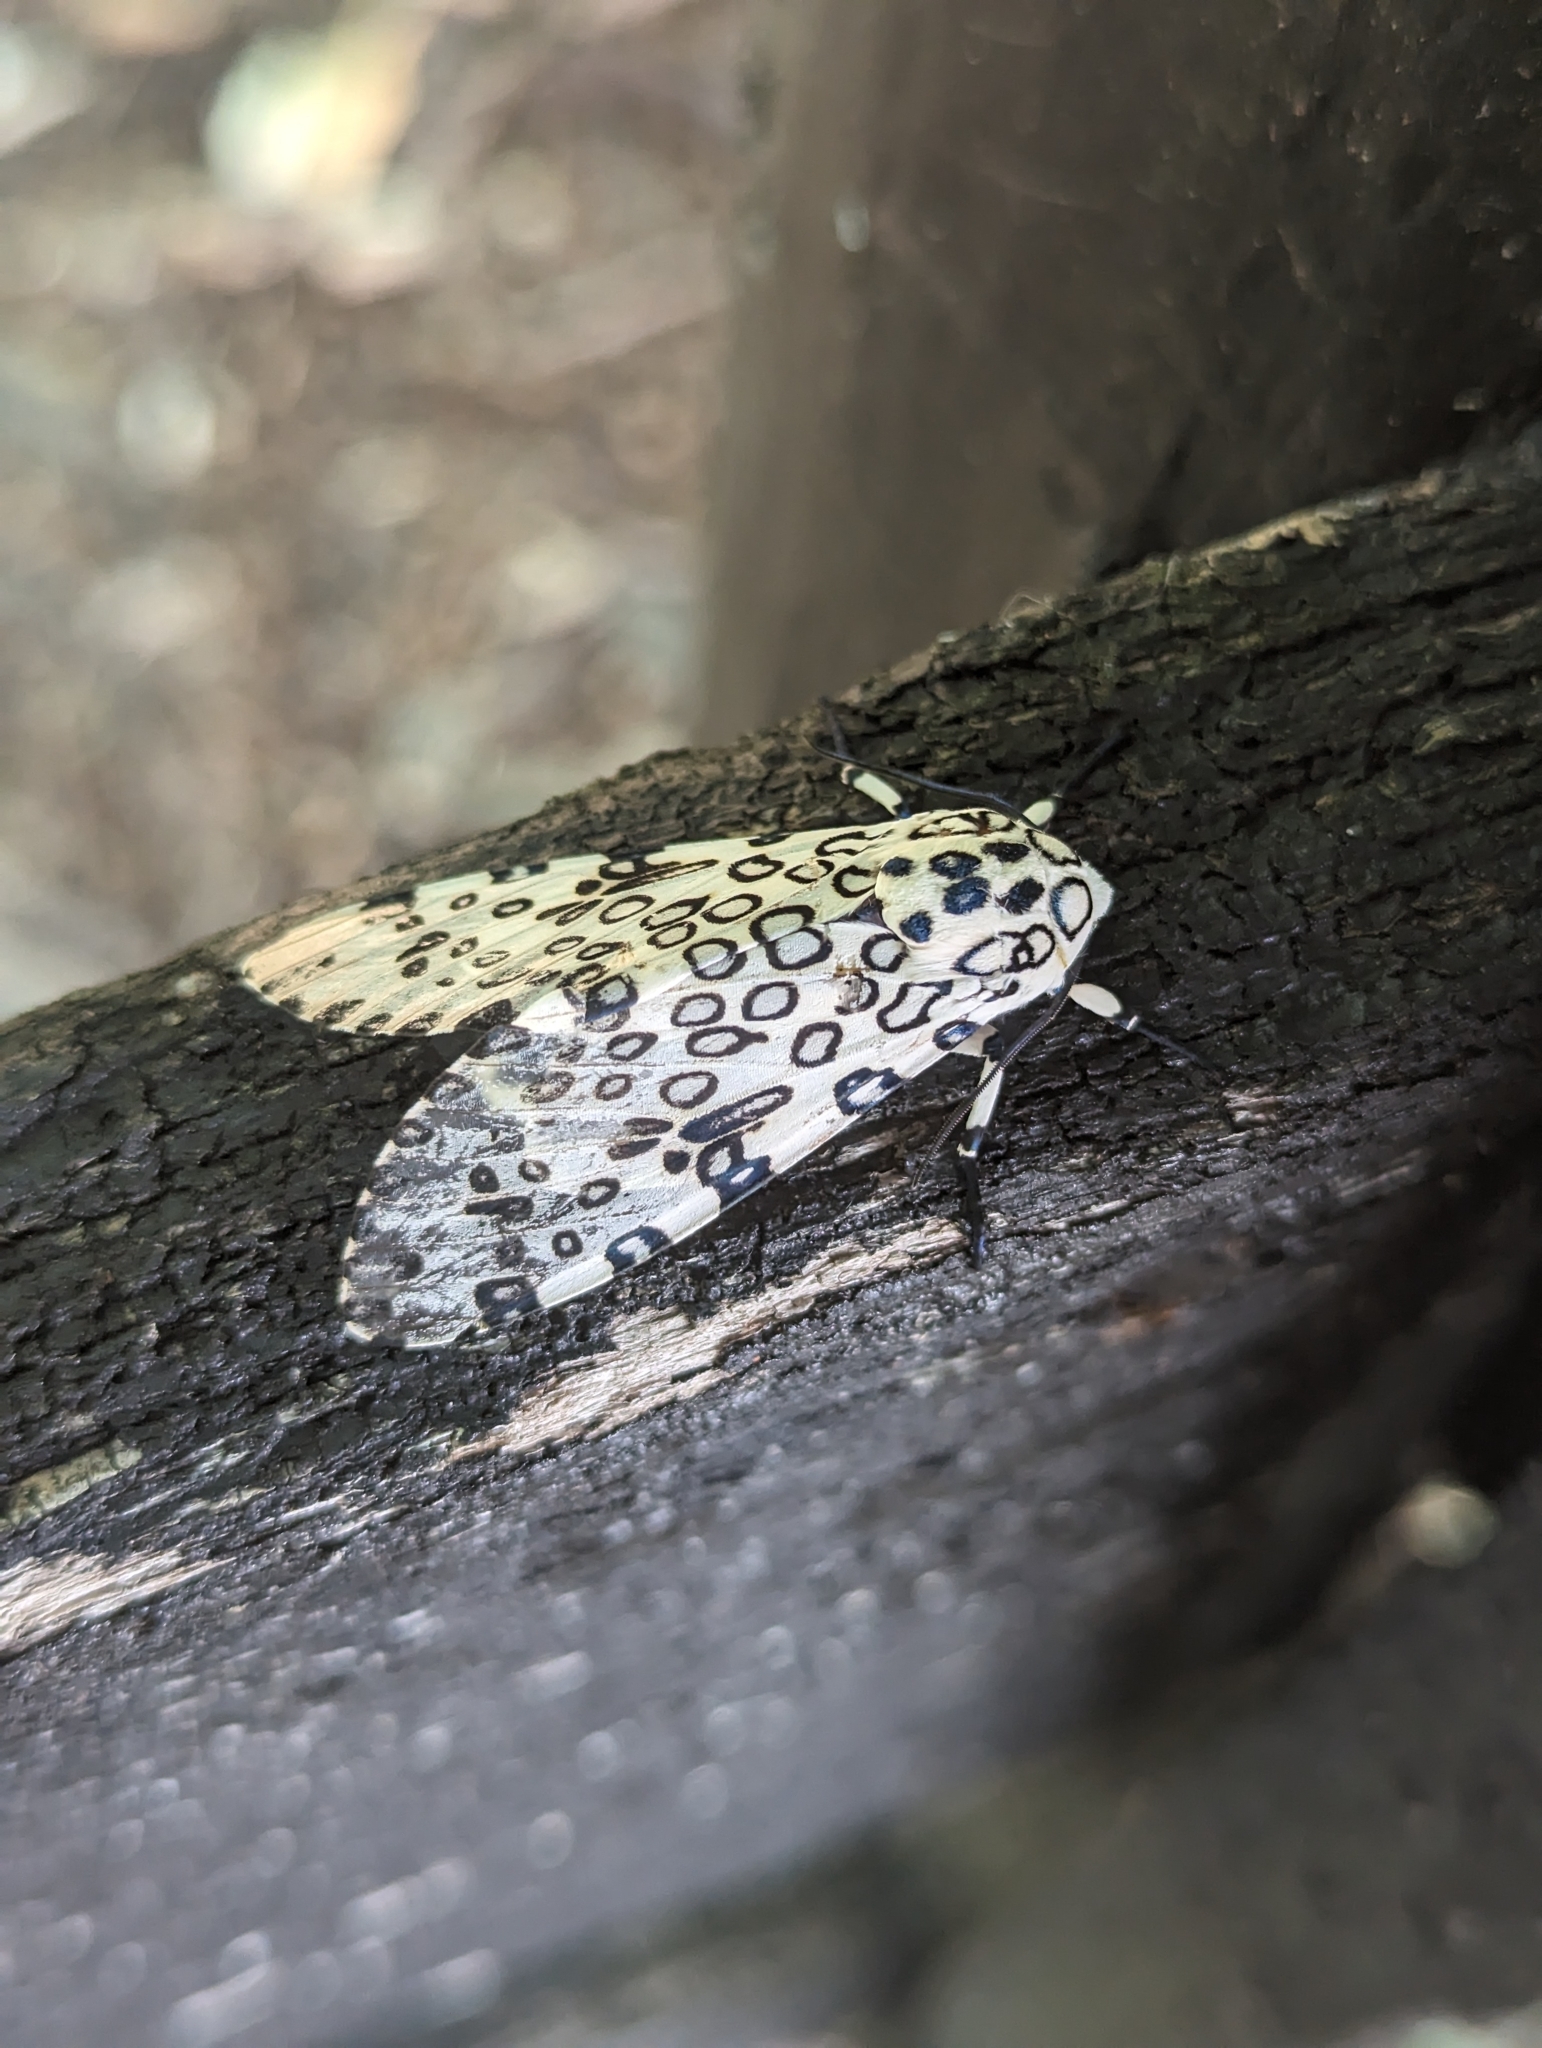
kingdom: Animalia
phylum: Arthropoda
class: Insecta
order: Lepidoptera
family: Erebidae
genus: Hypercompe
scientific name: Hypercompe scribonia
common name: Giant leopard moth
